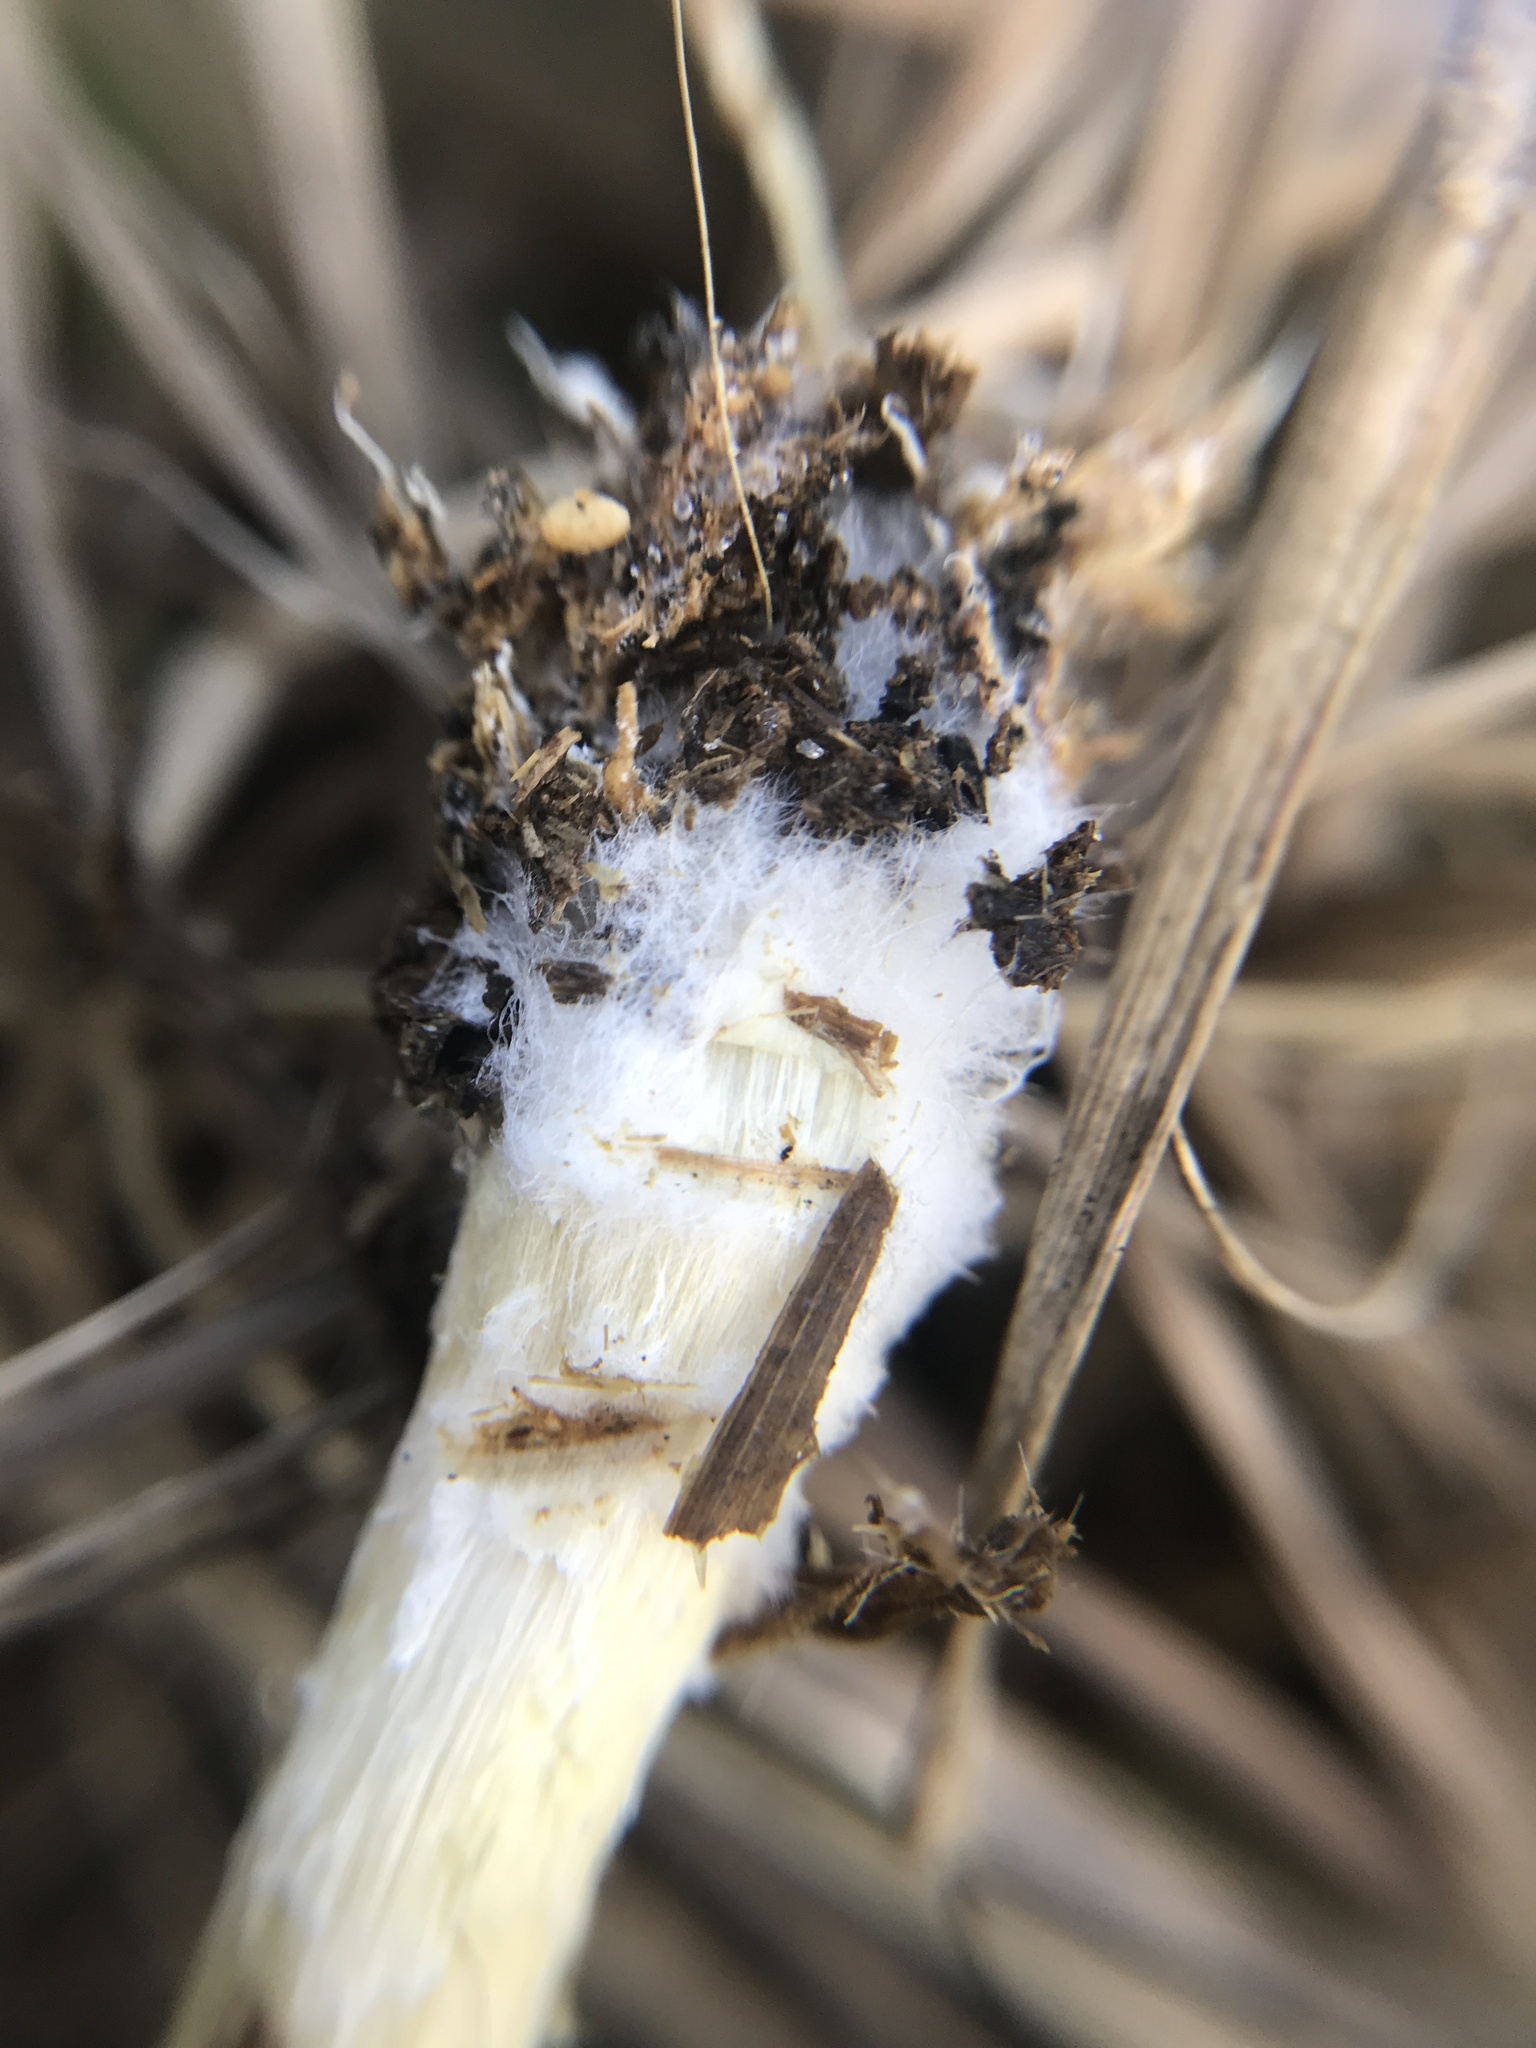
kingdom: Fungi
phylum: Basidiomycota
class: Agaricomycetes
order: Agaricales
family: Hymenogastraceae
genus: Psilocybe
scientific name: Psilocybe cubensis
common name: Golden brownie
